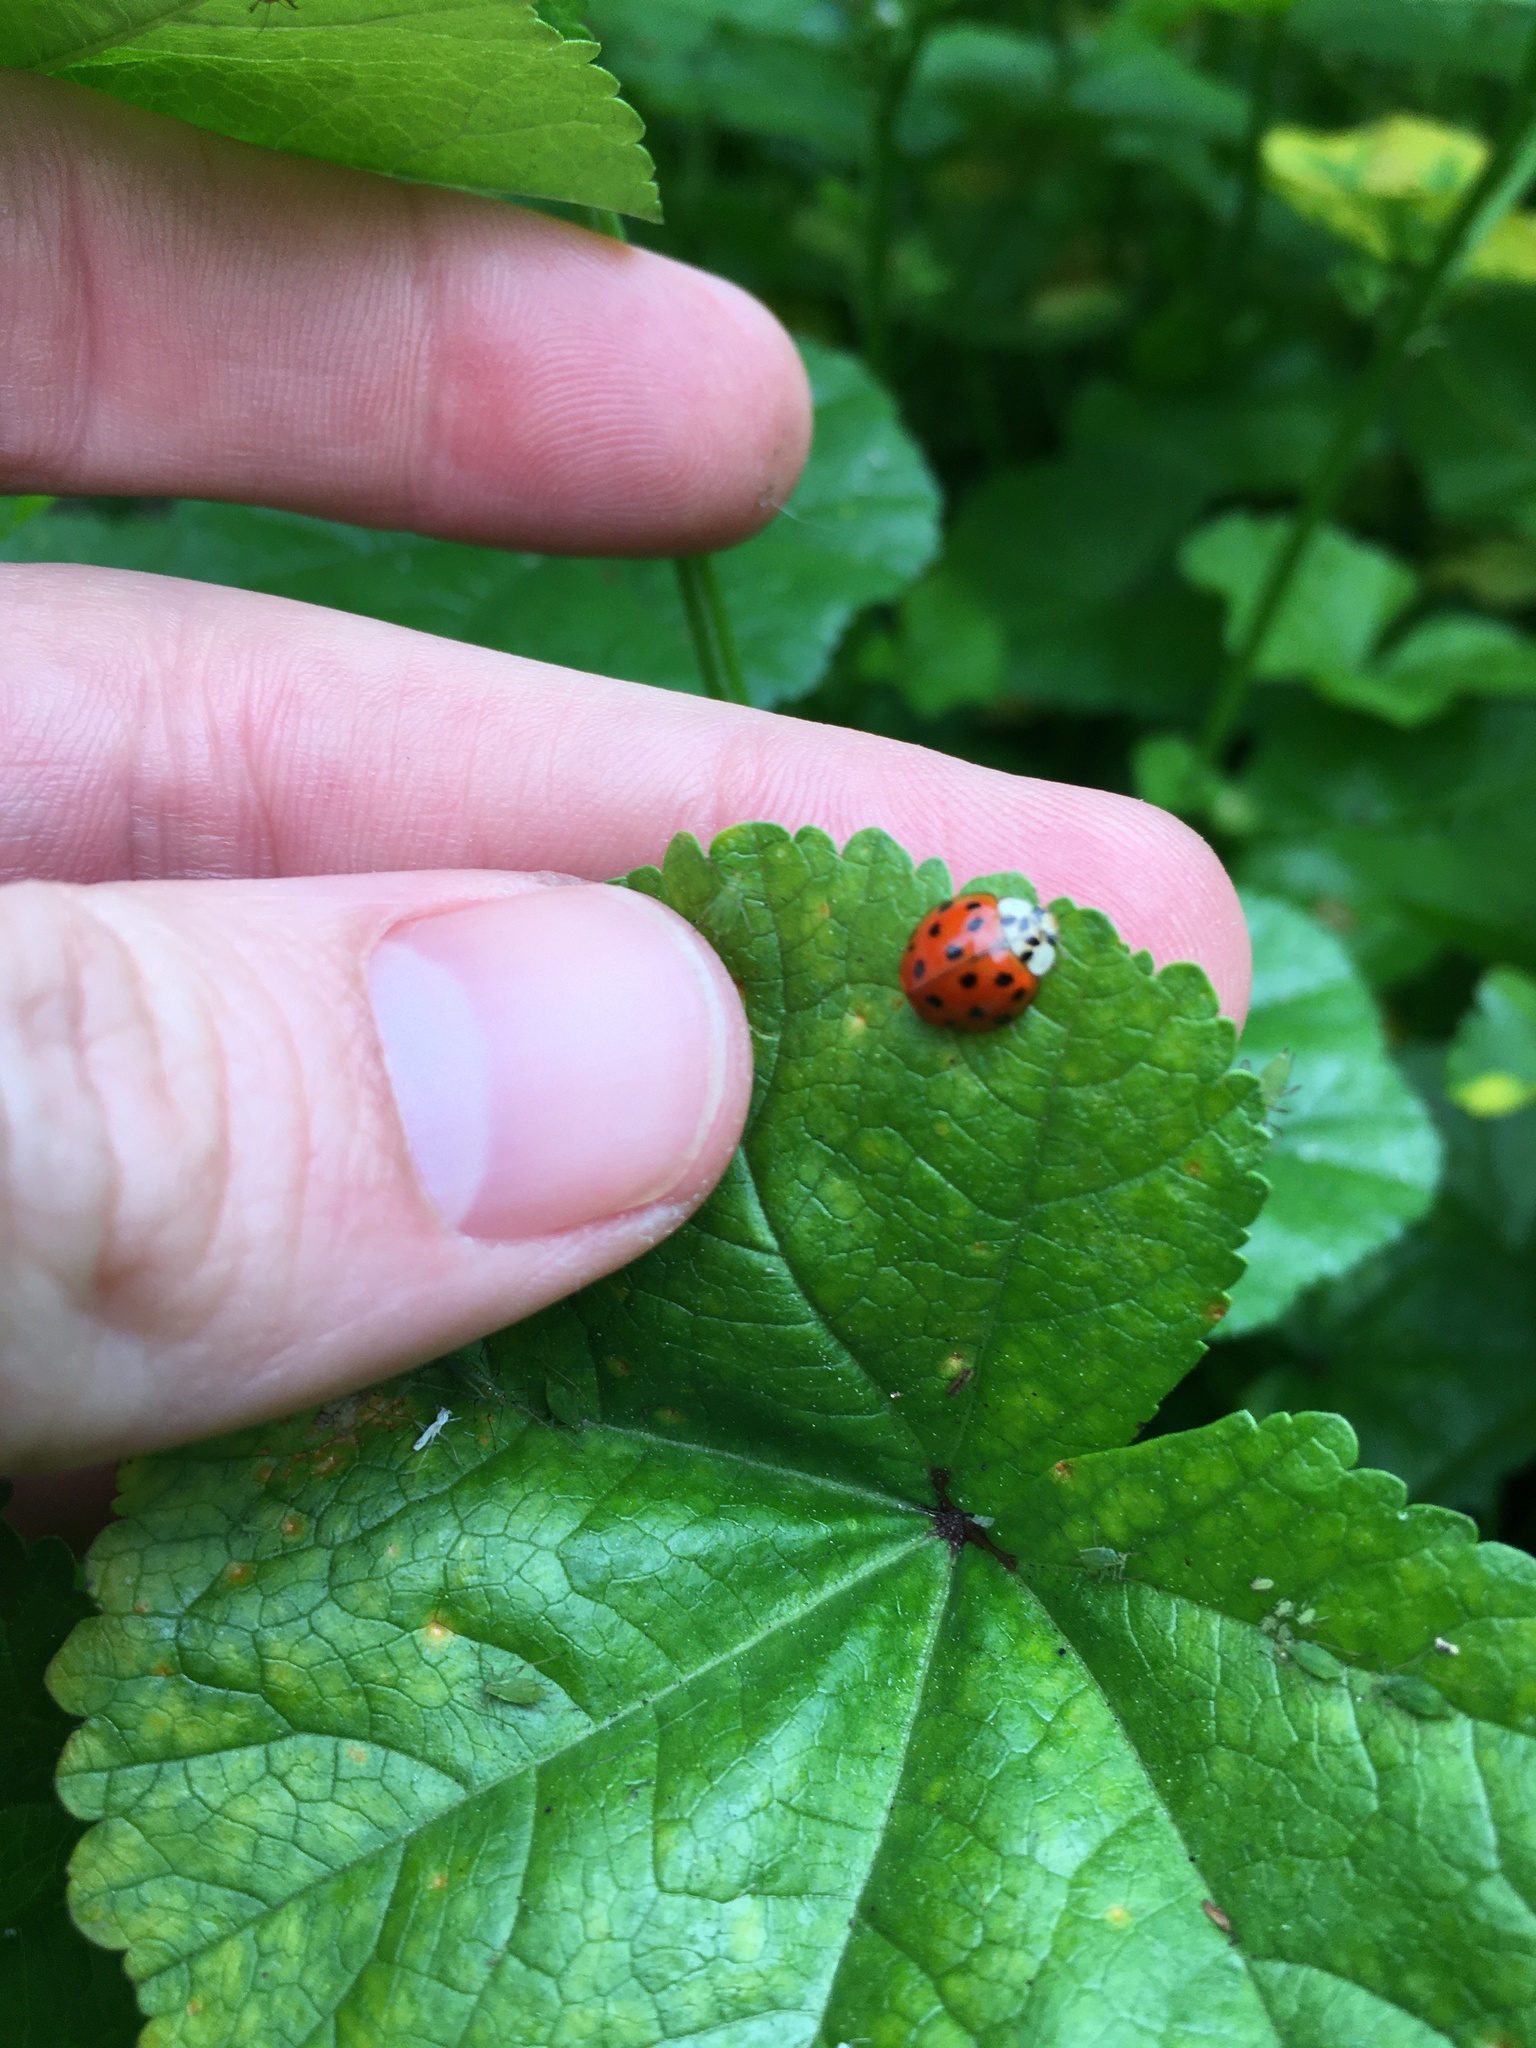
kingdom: Animalia
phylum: Arthropoda
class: Insecta
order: Coleoptera
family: Coccinellidae
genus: Harmonia
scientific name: Harmonia axyridis
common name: Harlequin ladybird
